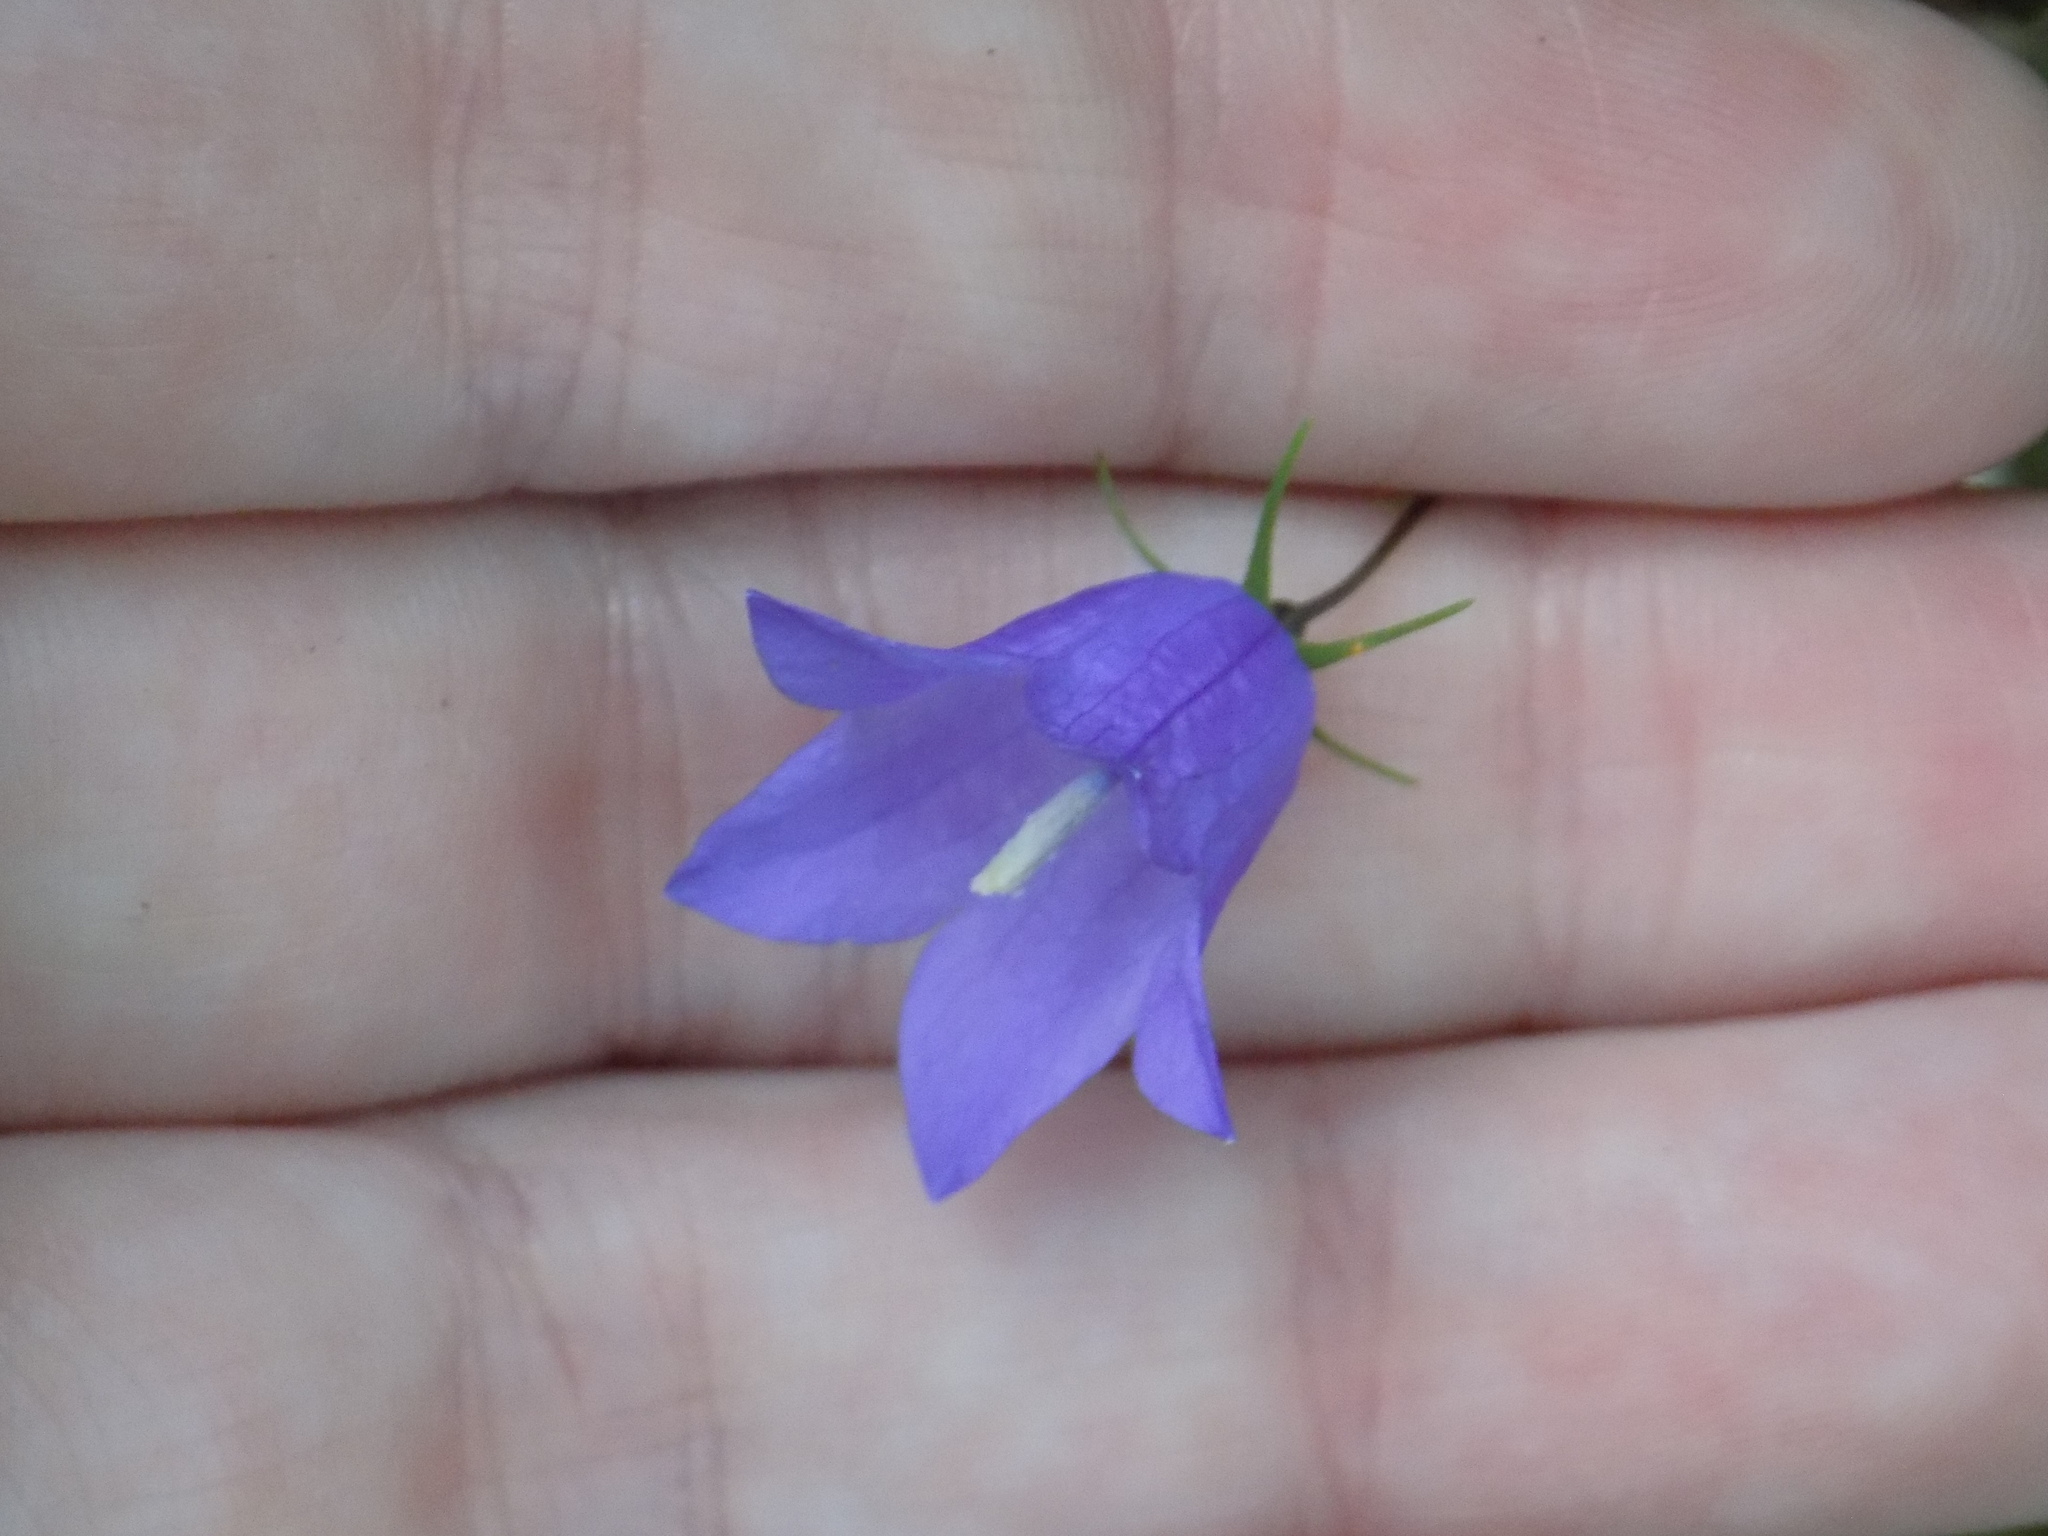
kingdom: Plantae
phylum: Tracheophyta
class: Magnoliopsida
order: Asterales
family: Campanulaceae
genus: Campanula
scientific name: Campanula rotundifolia
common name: Harebell
